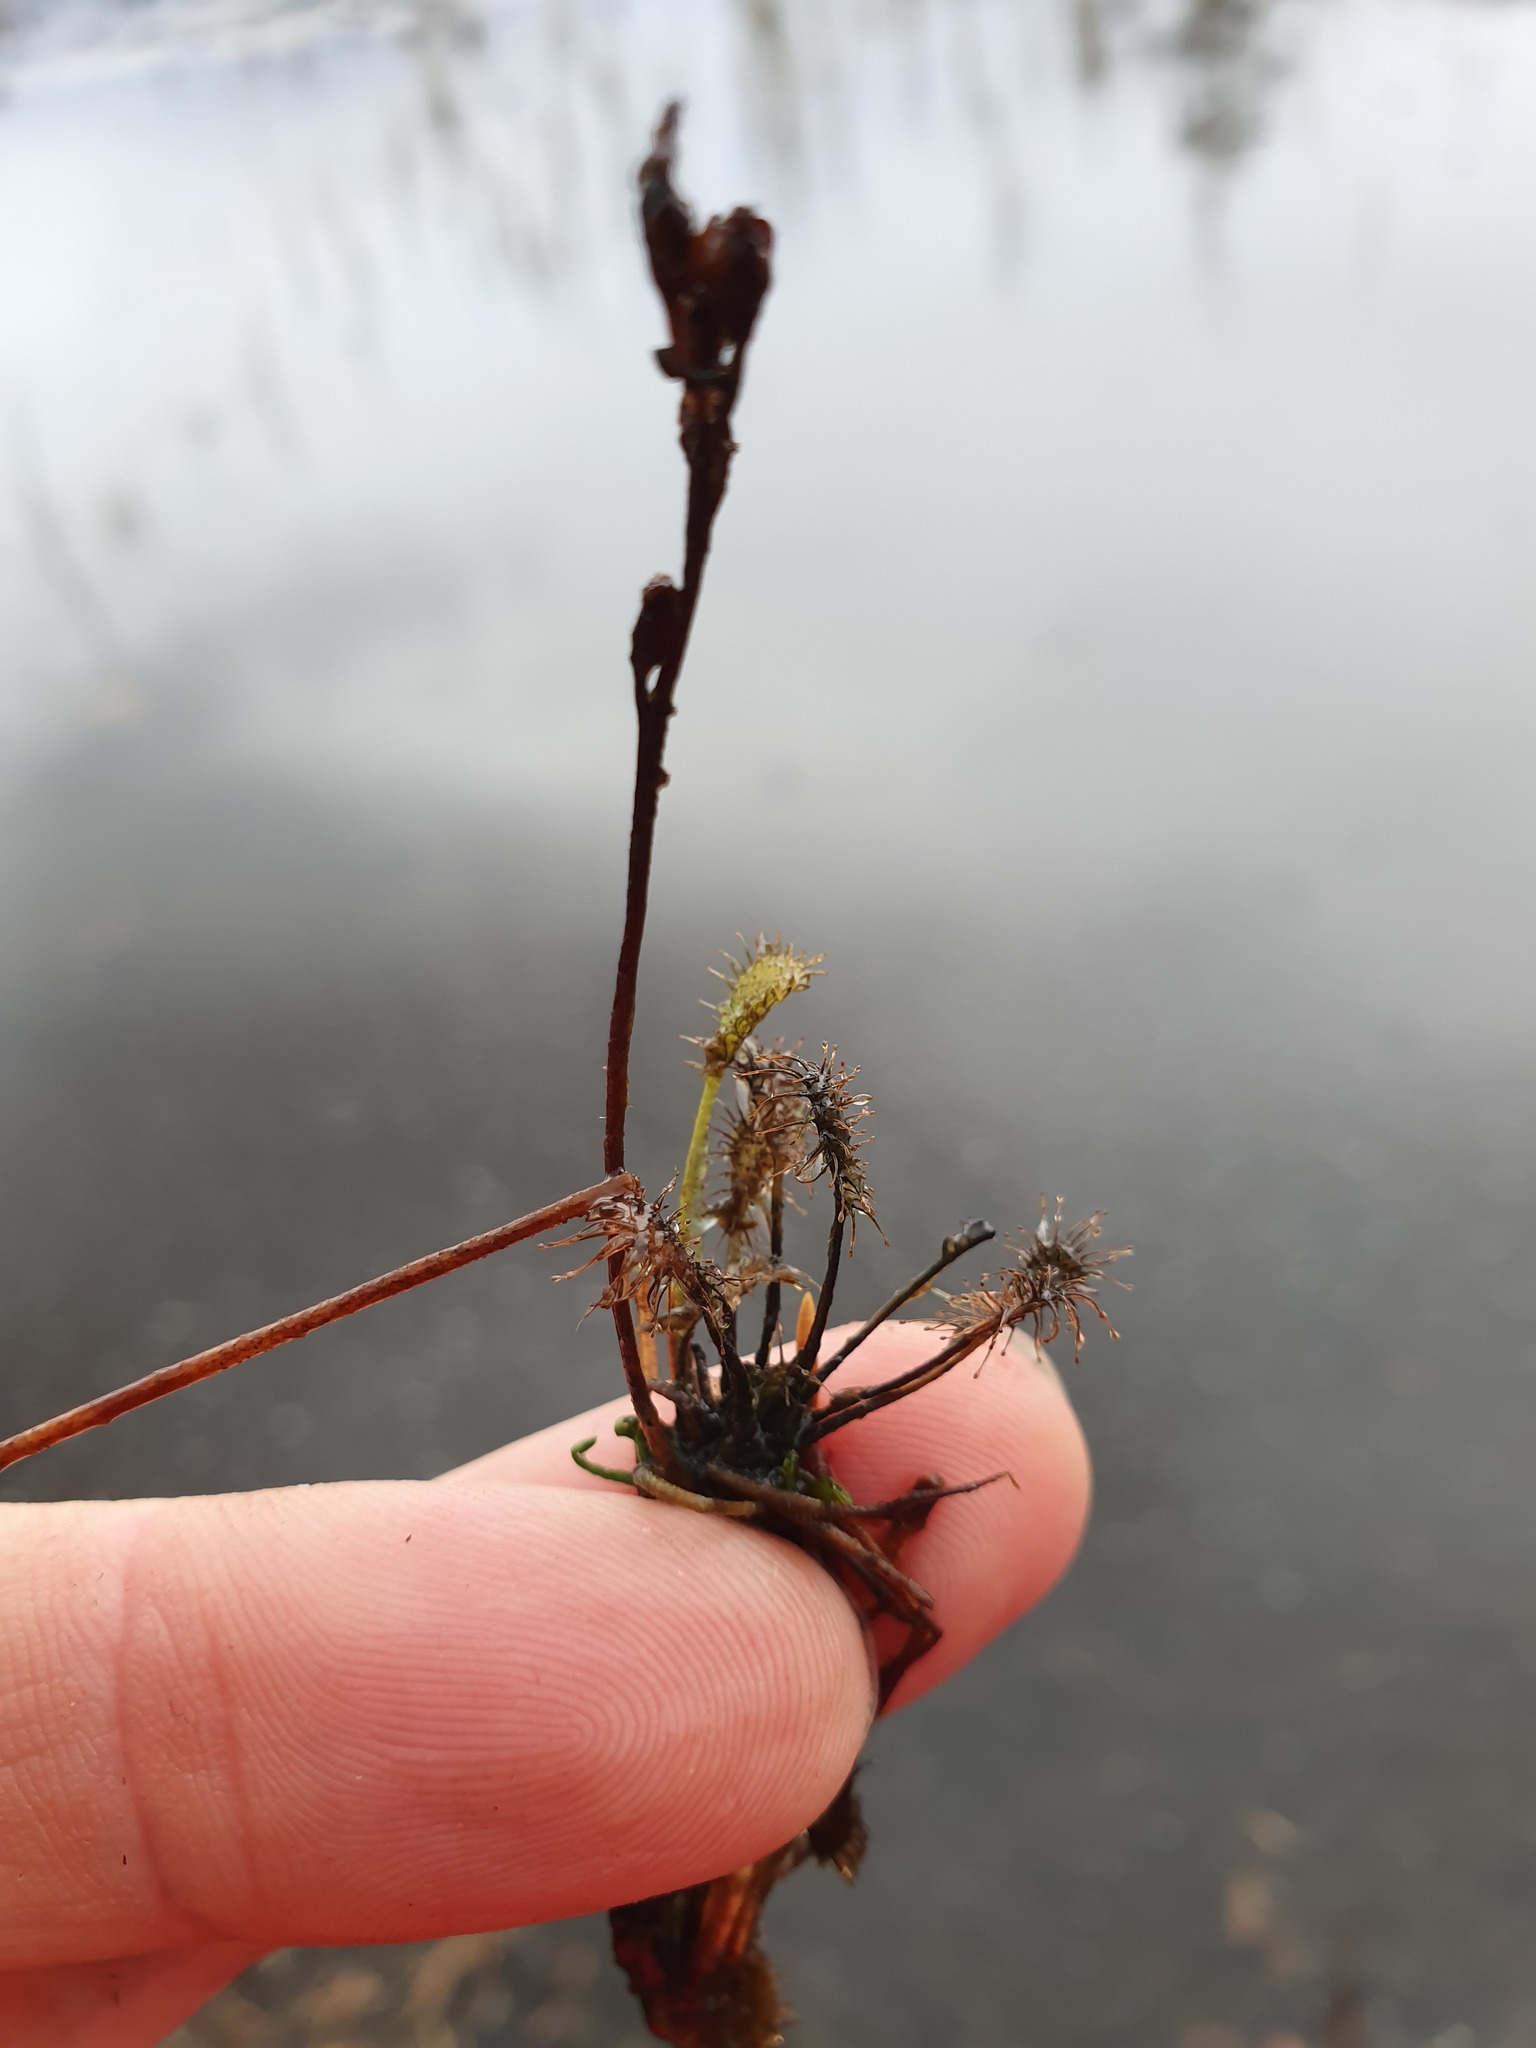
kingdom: Plantae
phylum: Tracheophyta
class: Magnoliopsida
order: Caryophyllales
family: Droseraceae
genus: Drosera
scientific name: Drosera intermedia
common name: Oblong-leaved sundew
